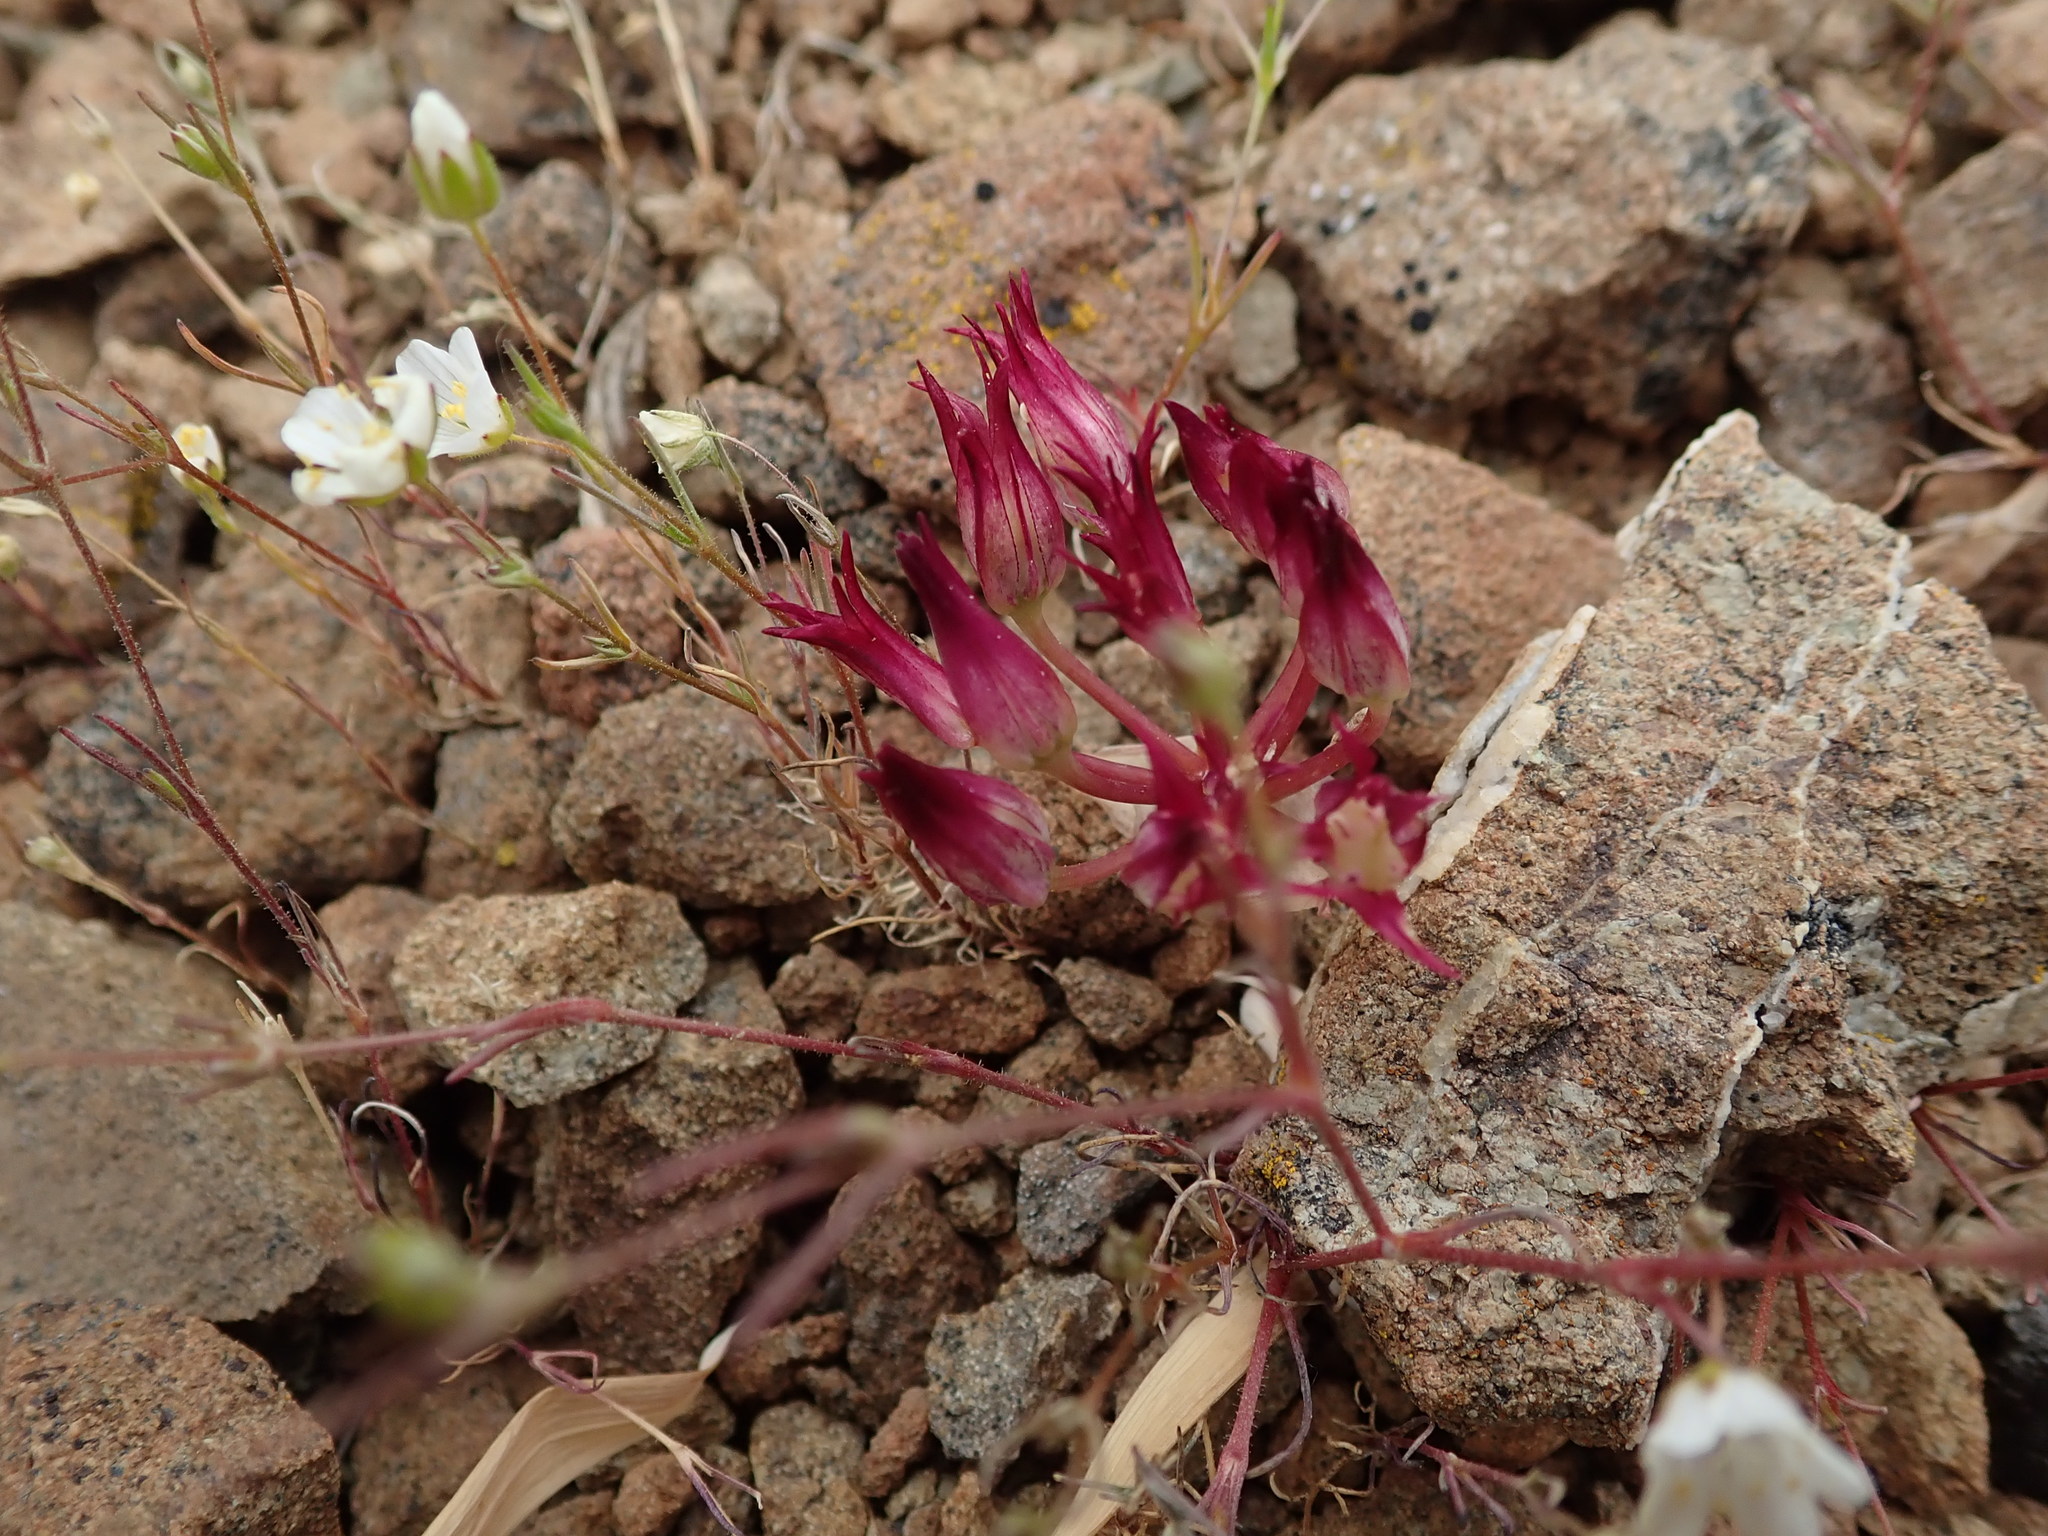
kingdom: Plantae
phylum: Tracheophyta
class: Liliopsida
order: Asparagales
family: Amaryllidaceae
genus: Allium
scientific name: Allium falcifolium
